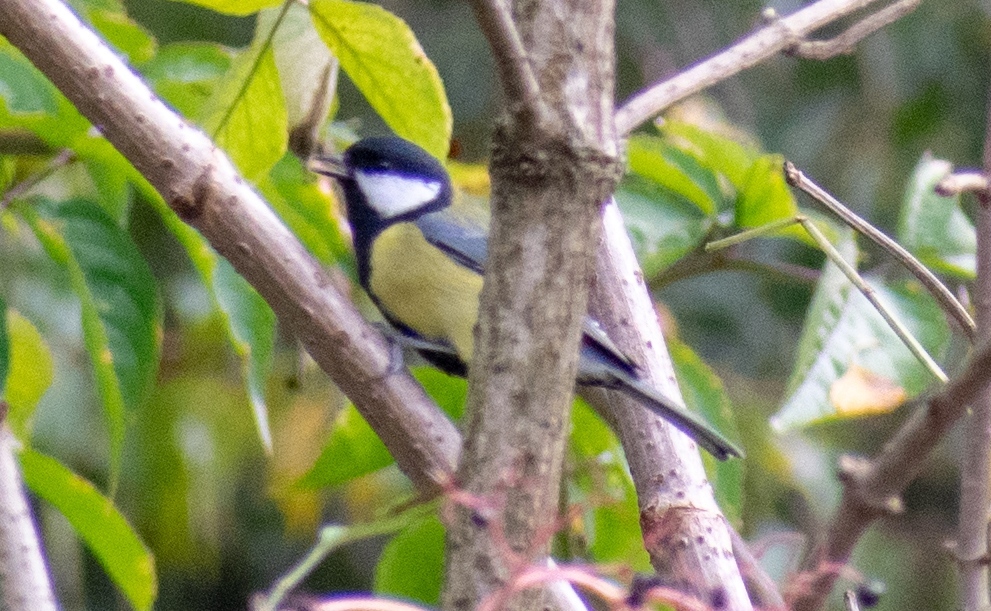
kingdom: Animalia
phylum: Chordata
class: Aves
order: Passeriformes
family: Paridae
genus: Parus
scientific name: Parus major
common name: Great tit
